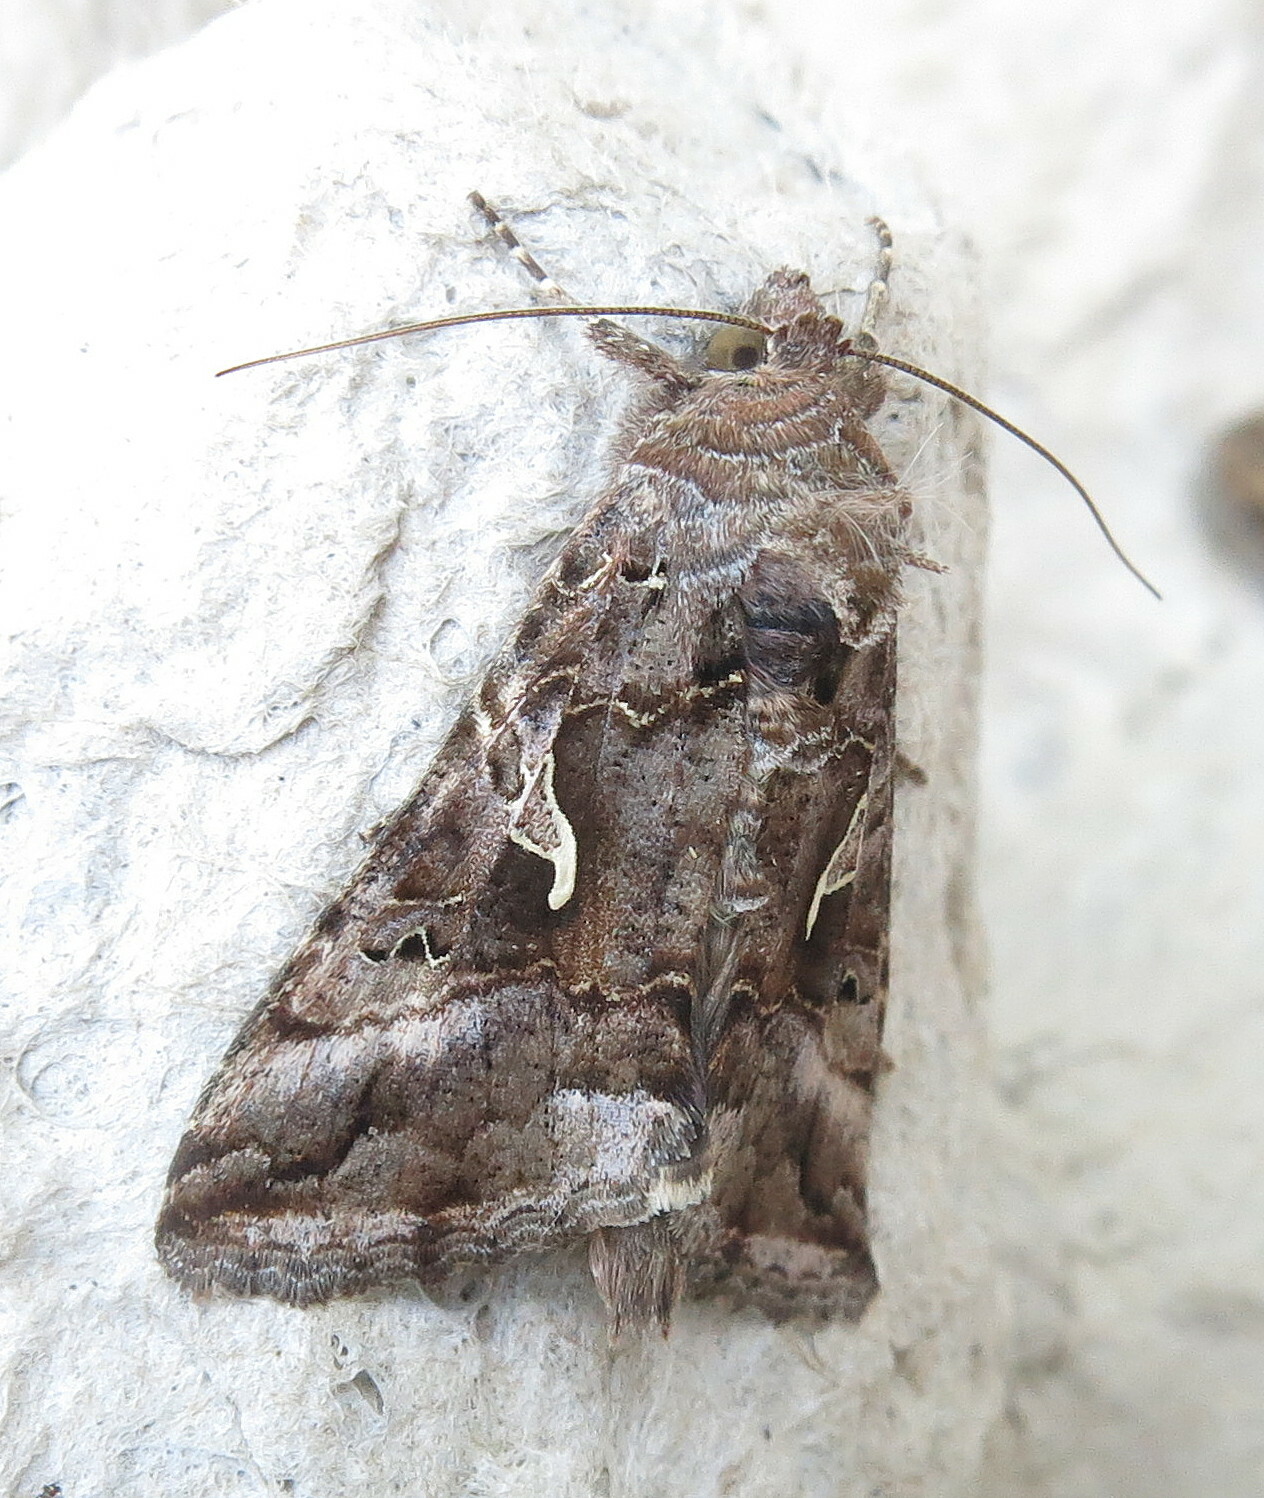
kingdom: Animalia
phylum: Arthropoda
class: Insecta
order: Lepidoptera
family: Noctuidae
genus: Autographa
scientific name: Autographa gamma
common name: Silver y
